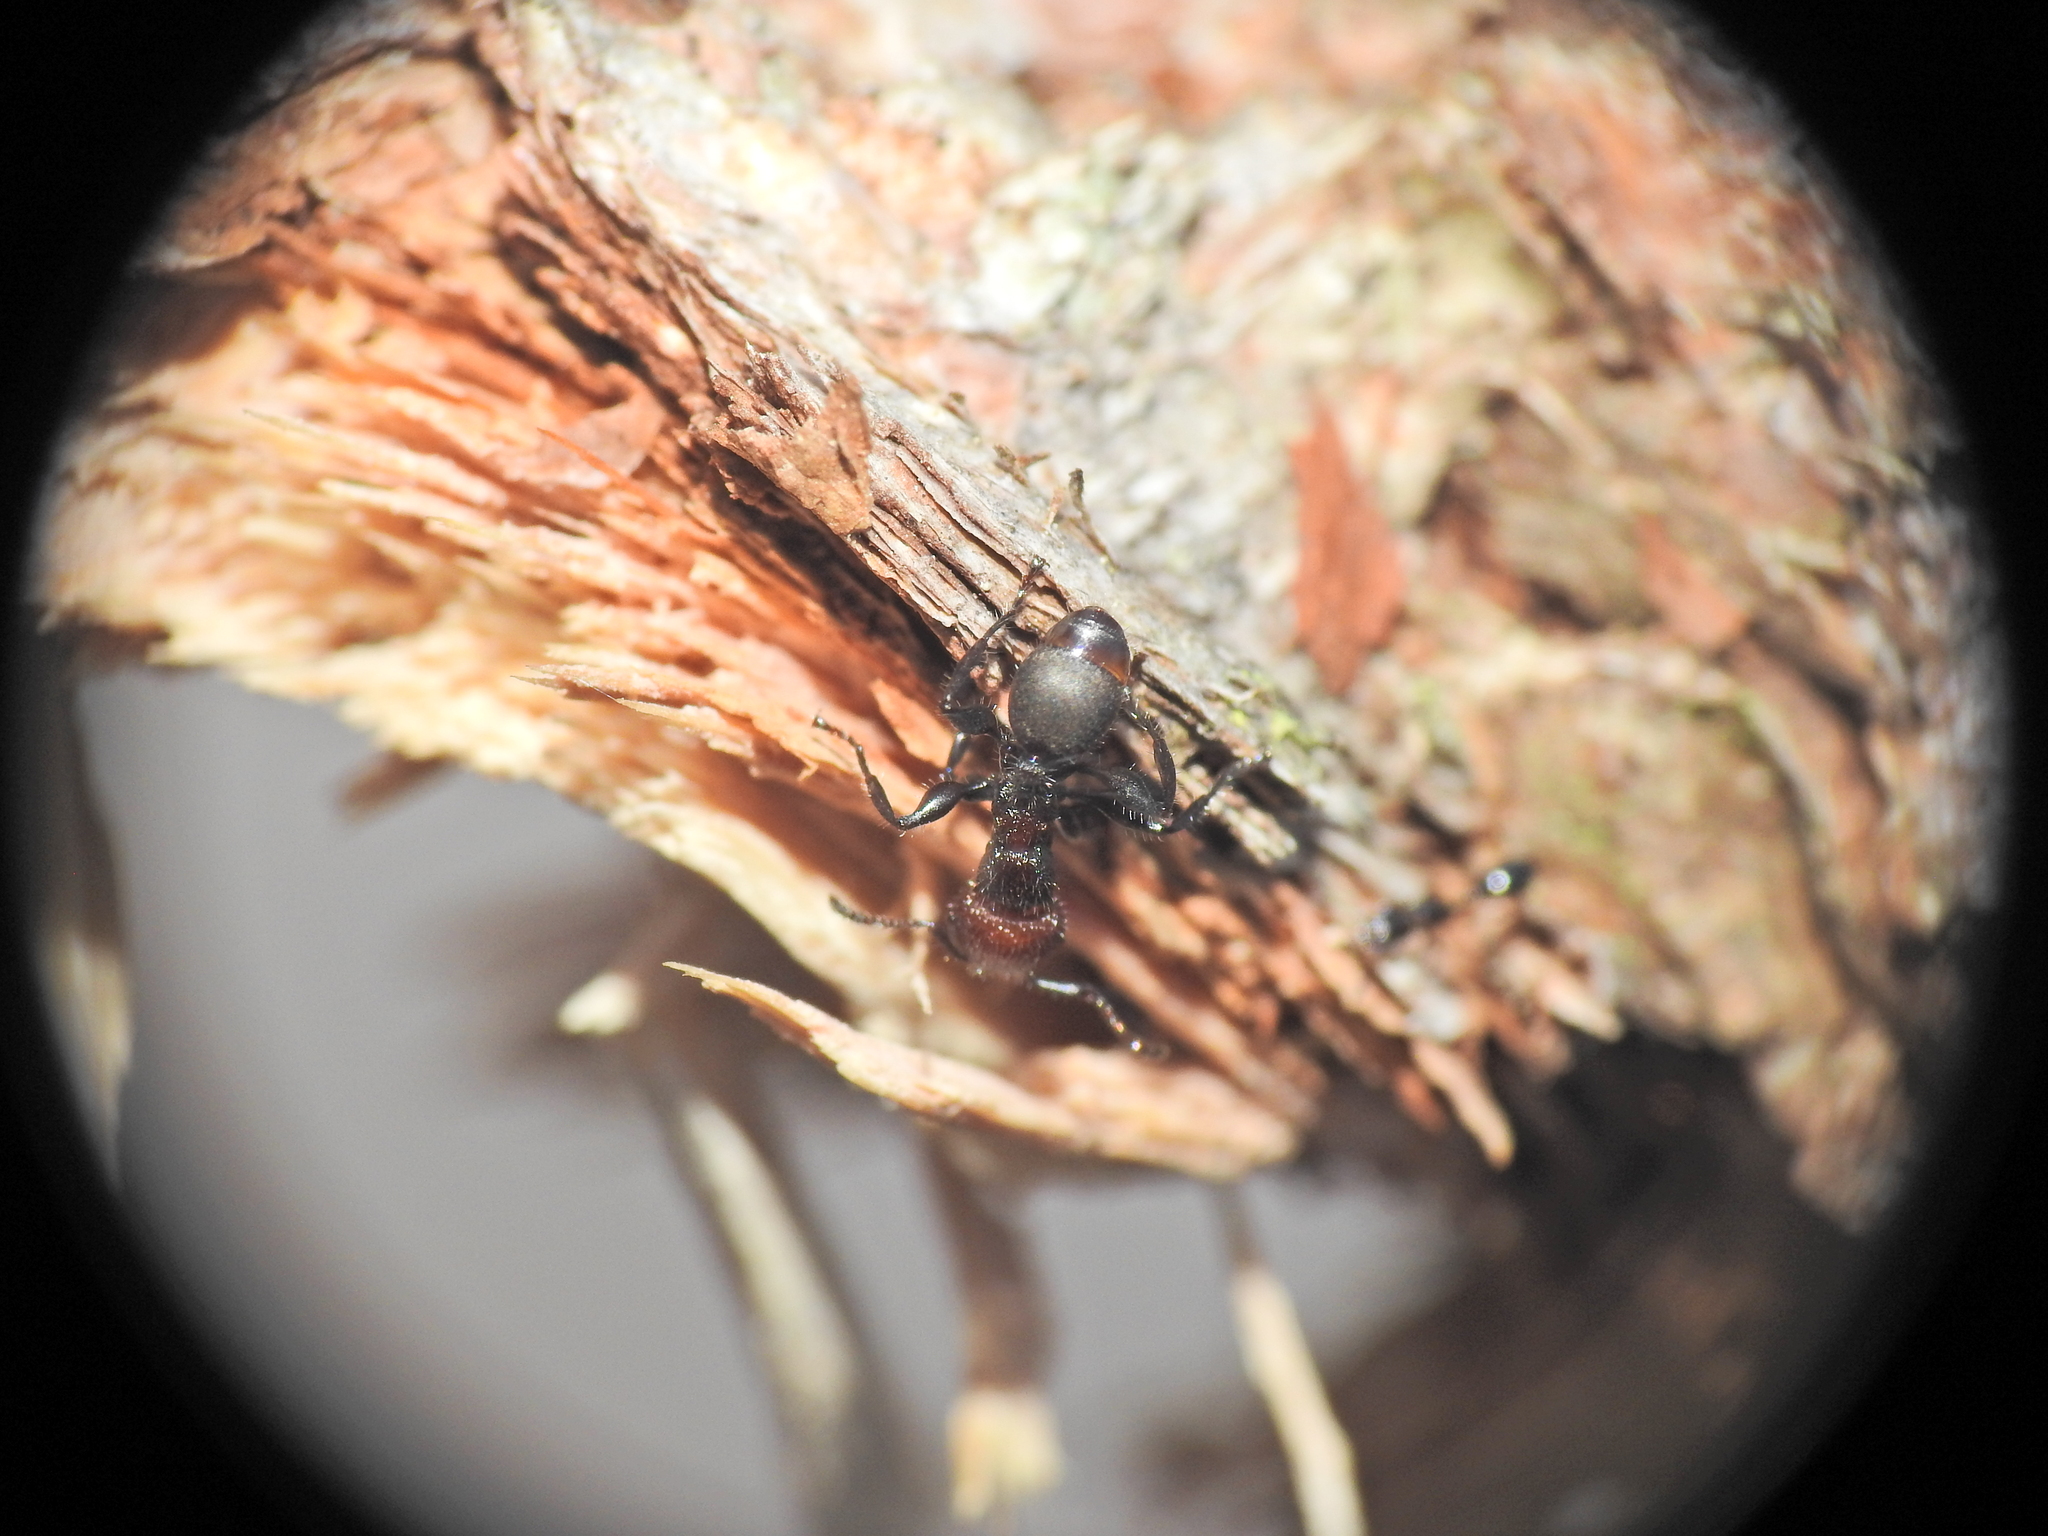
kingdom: Animalia
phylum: Arthropoda
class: Insecta
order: Hymenoptera
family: Formicidae
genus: Podomyrma
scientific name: Podomyrma micans
